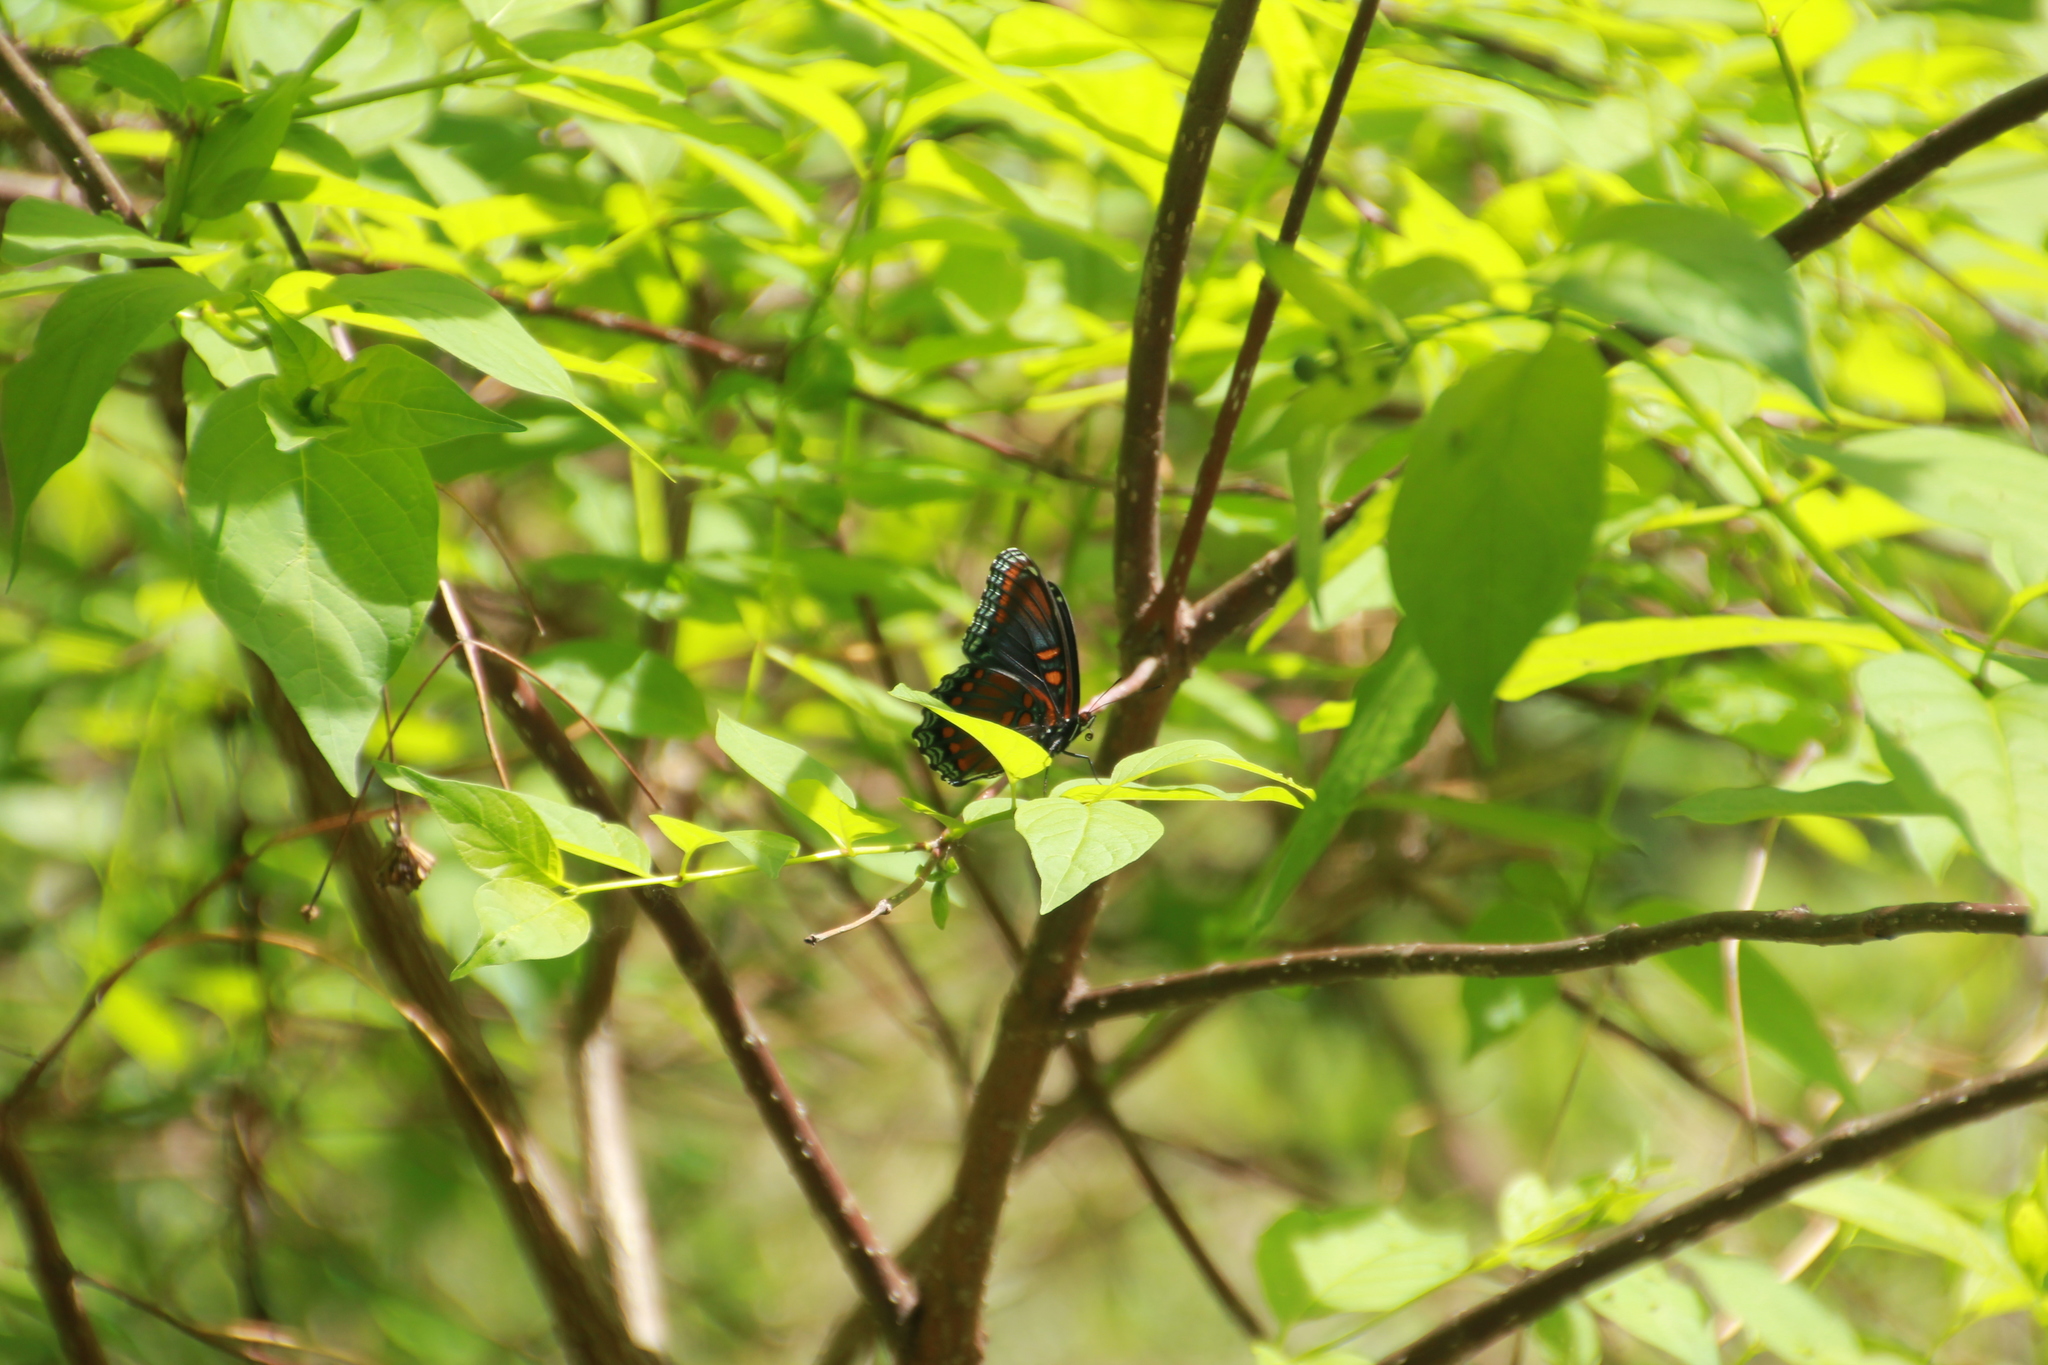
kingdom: Animalia
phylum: Arthropoda
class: Insecta
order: Lepidoptera
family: Nymphalidae
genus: Limenitis
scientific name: Limenitis astyanax
